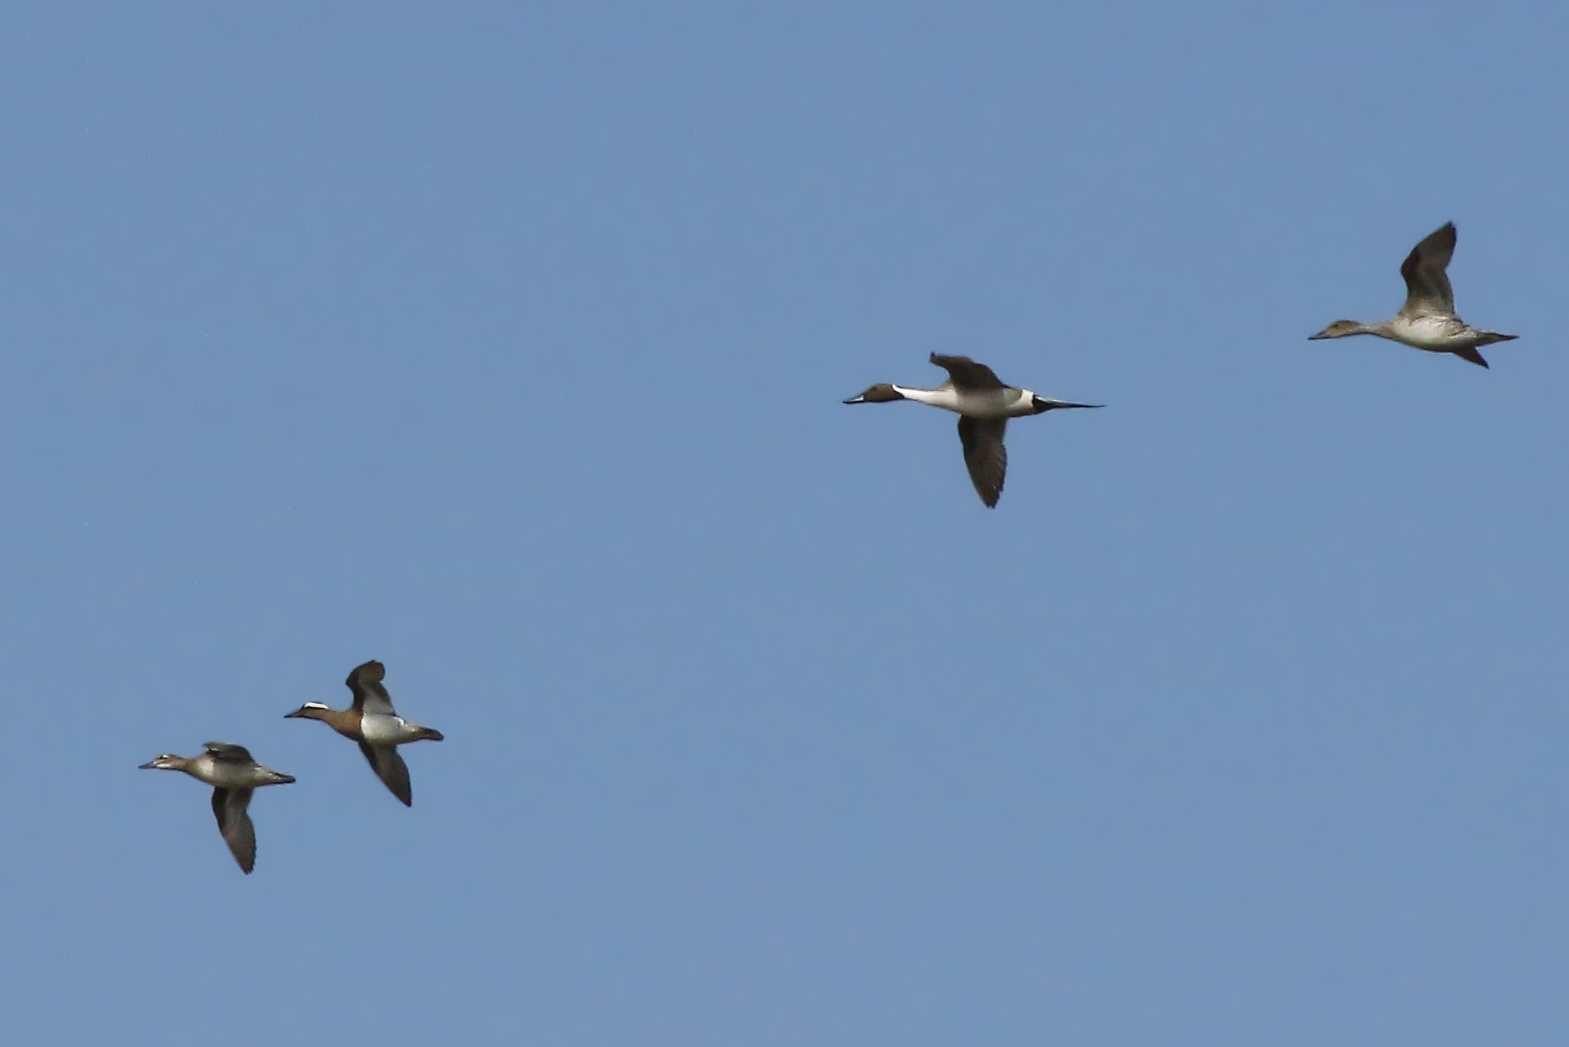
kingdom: Animalia
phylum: Chordata
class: Aves
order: Anseriformes
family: Anatidae
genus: Anas
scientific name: Anas acuta
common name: Northern pintail
